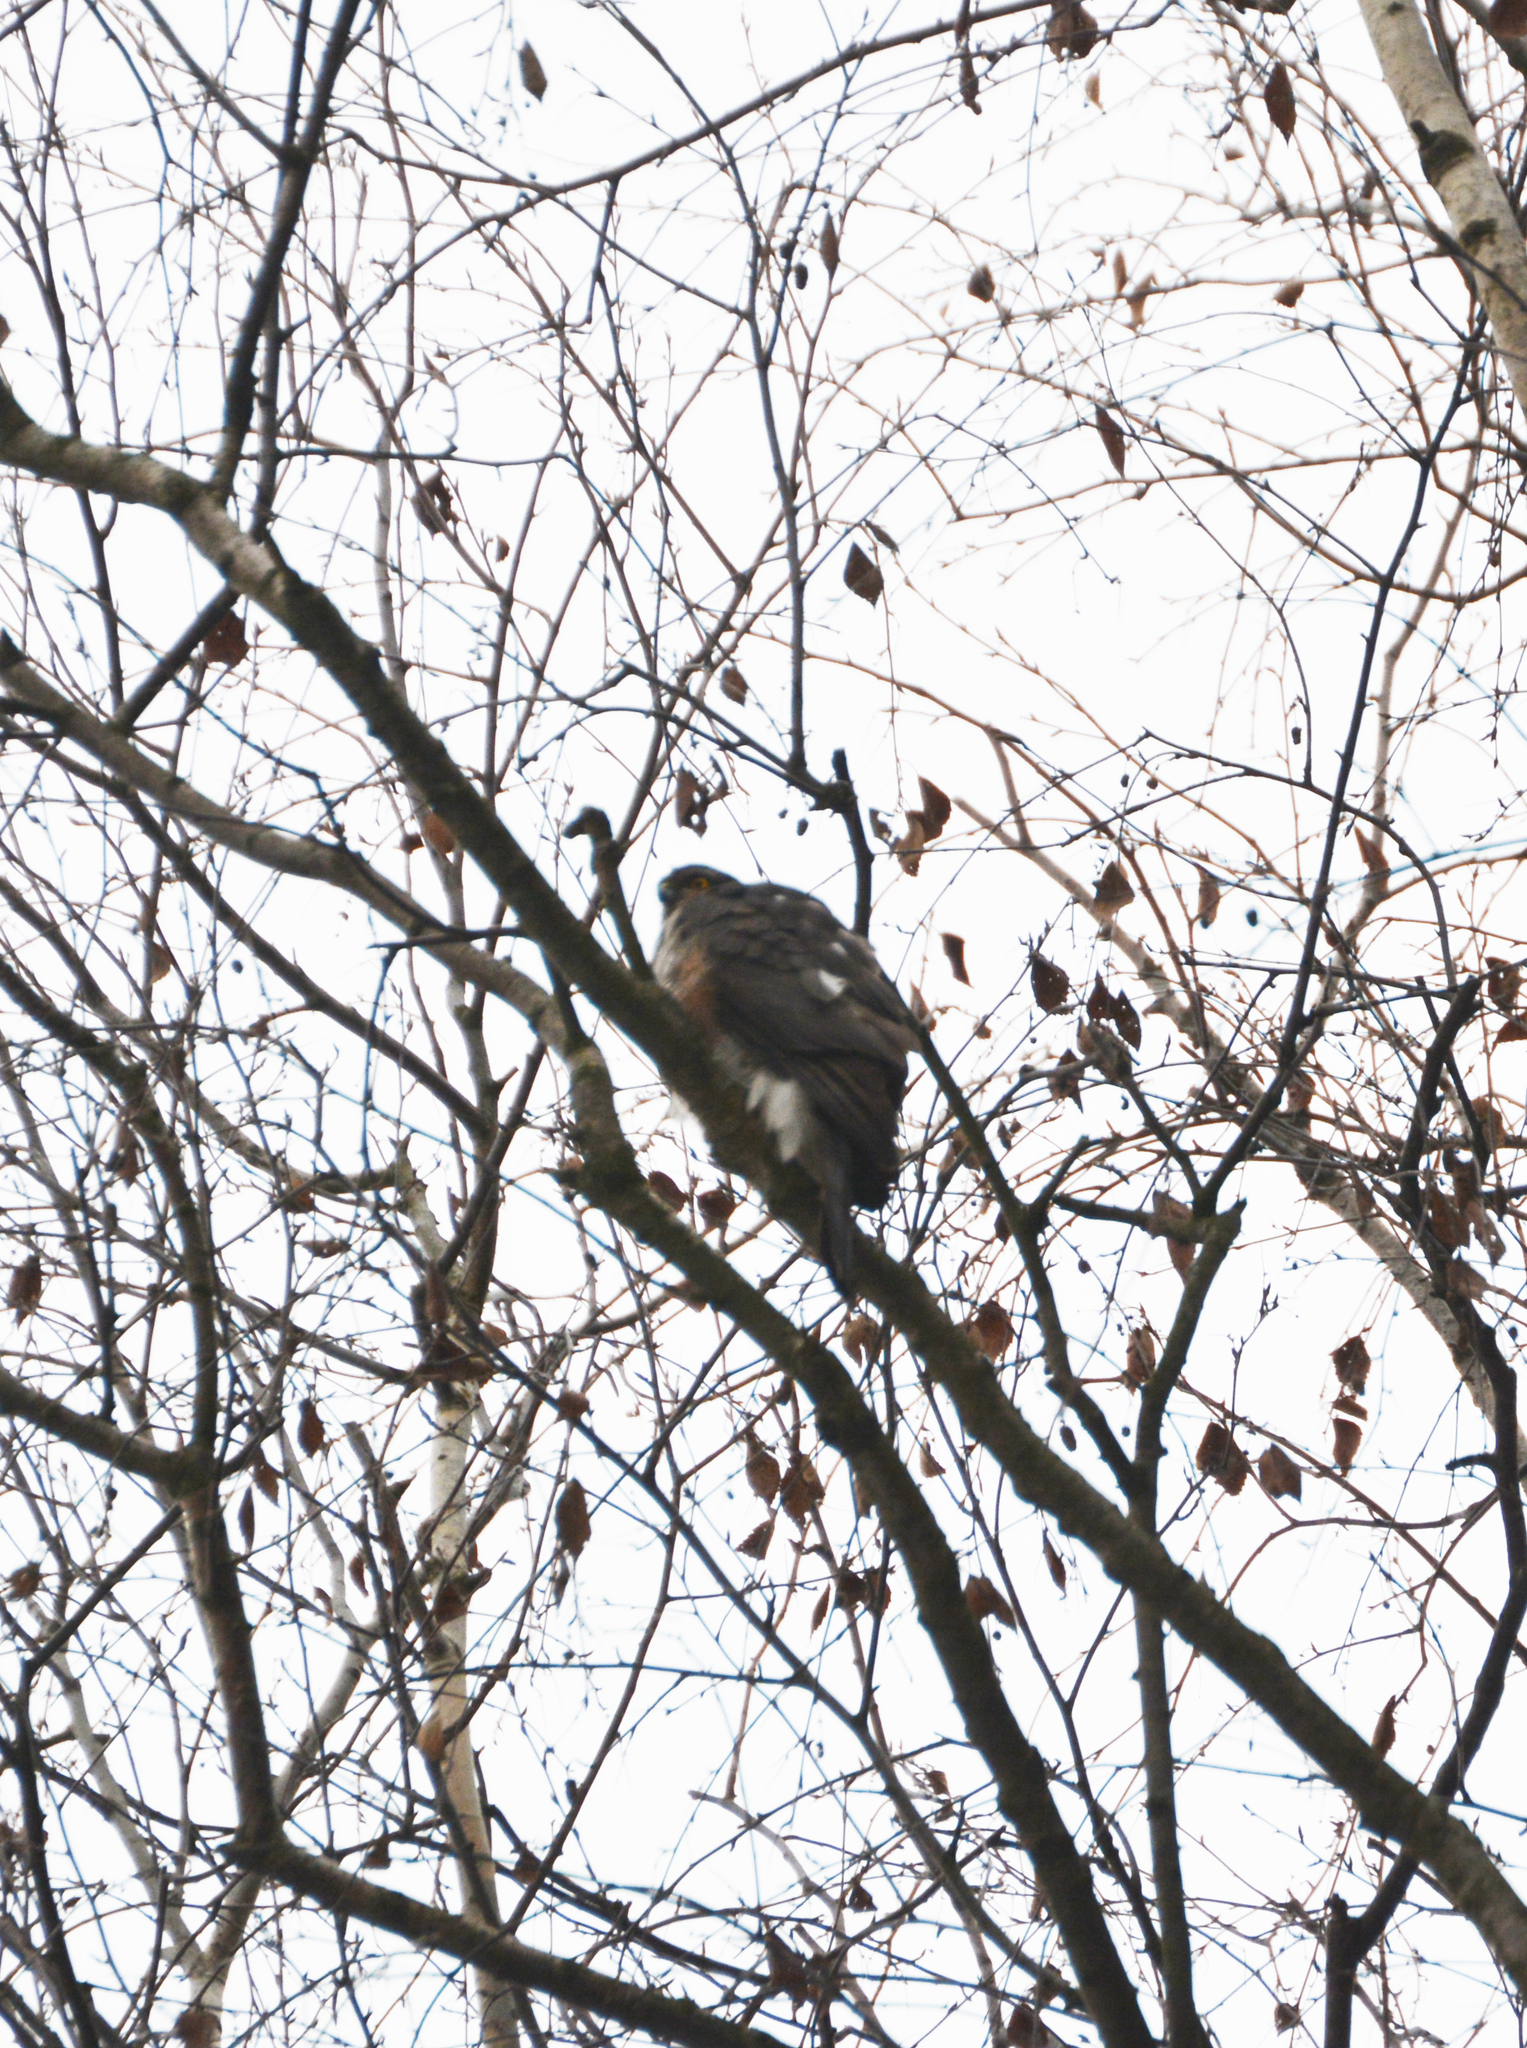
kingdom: Animalia
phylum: Chordata
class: Aves
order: Accipitriformes
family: Accipitridae
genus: Accipiter
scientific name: Accipiter nisus
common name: Eurasian sparrowhawk
